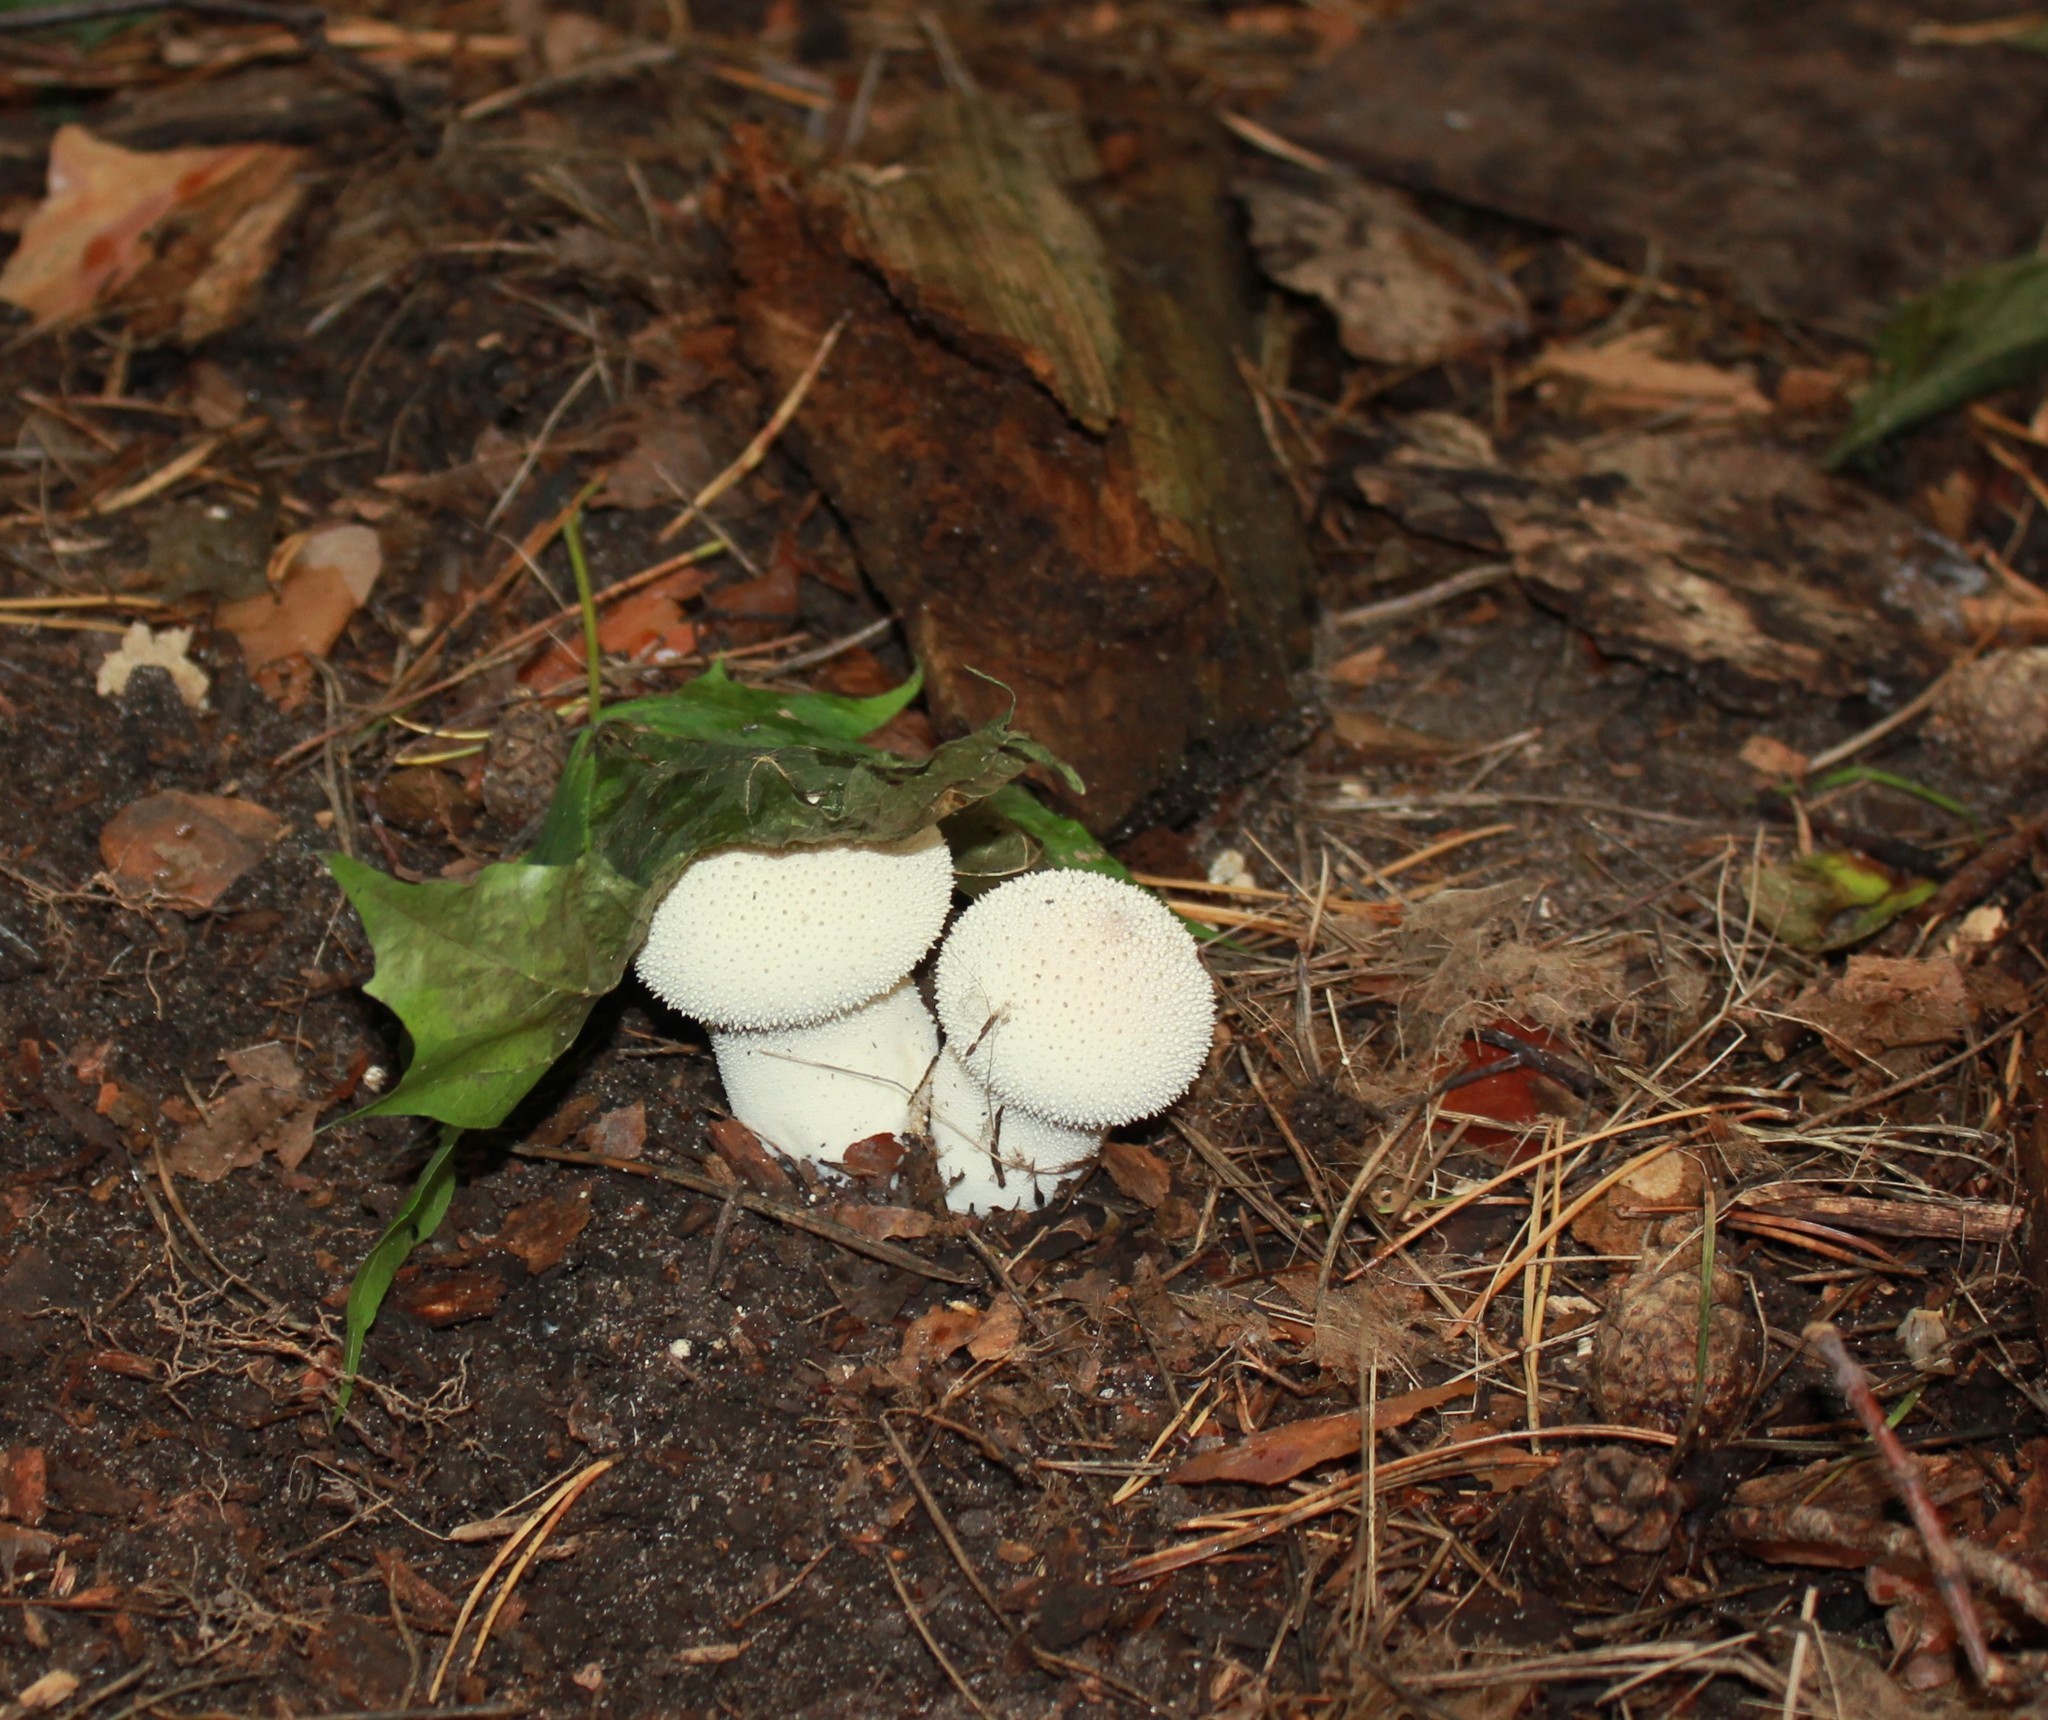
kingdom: Fungi
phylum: Basidiomycota
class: Agaricomycetes
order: Agaricales
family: Lycoperdaceae
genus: Lycoperdon
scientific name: Lycoperdon perlatum
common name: Common puffball
